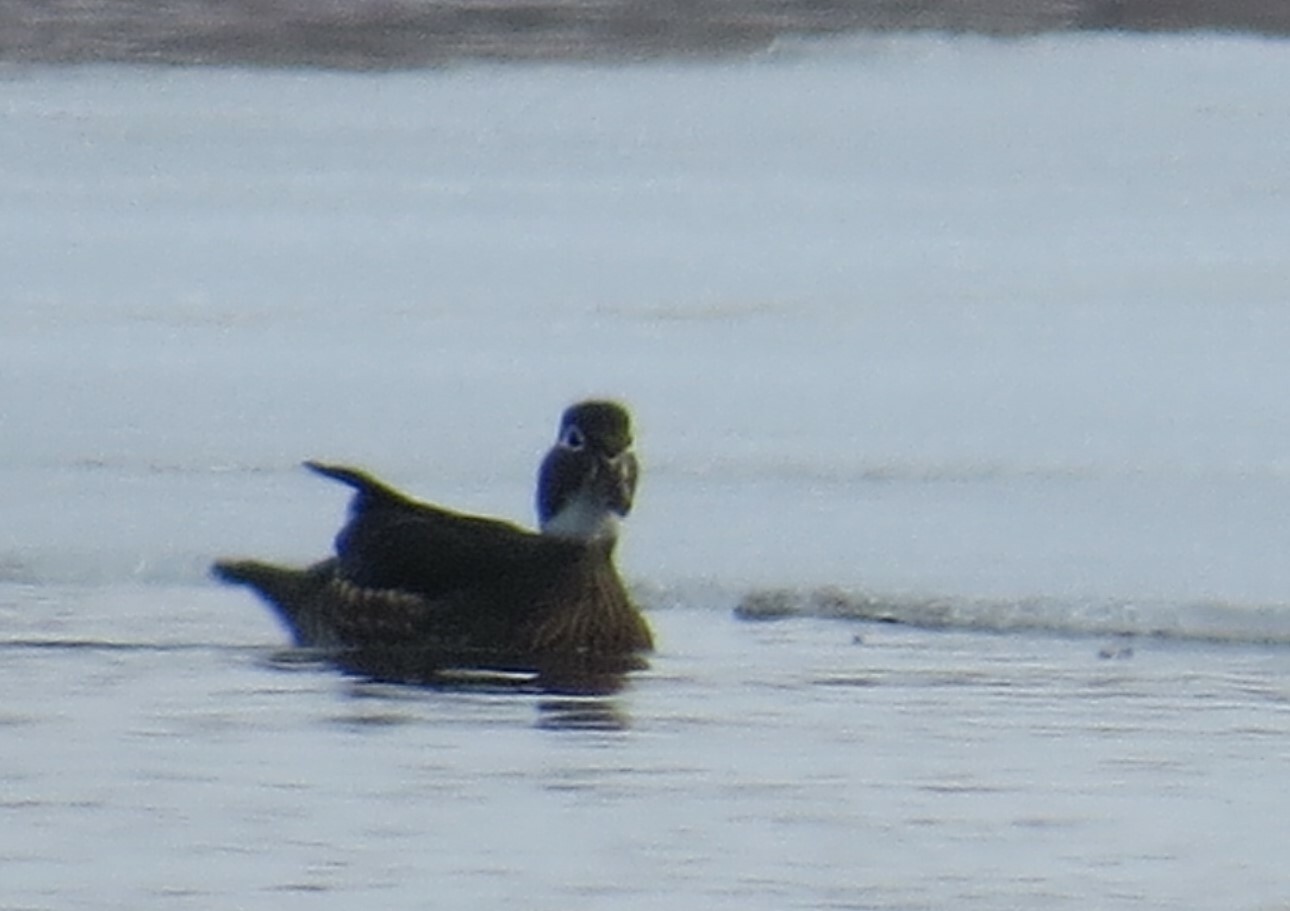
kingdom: Animalia
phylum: Chordata
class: Aves
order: Anseriformes
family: Anatidae
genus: Aix
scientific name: Aix sponsa
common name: Wood duck
